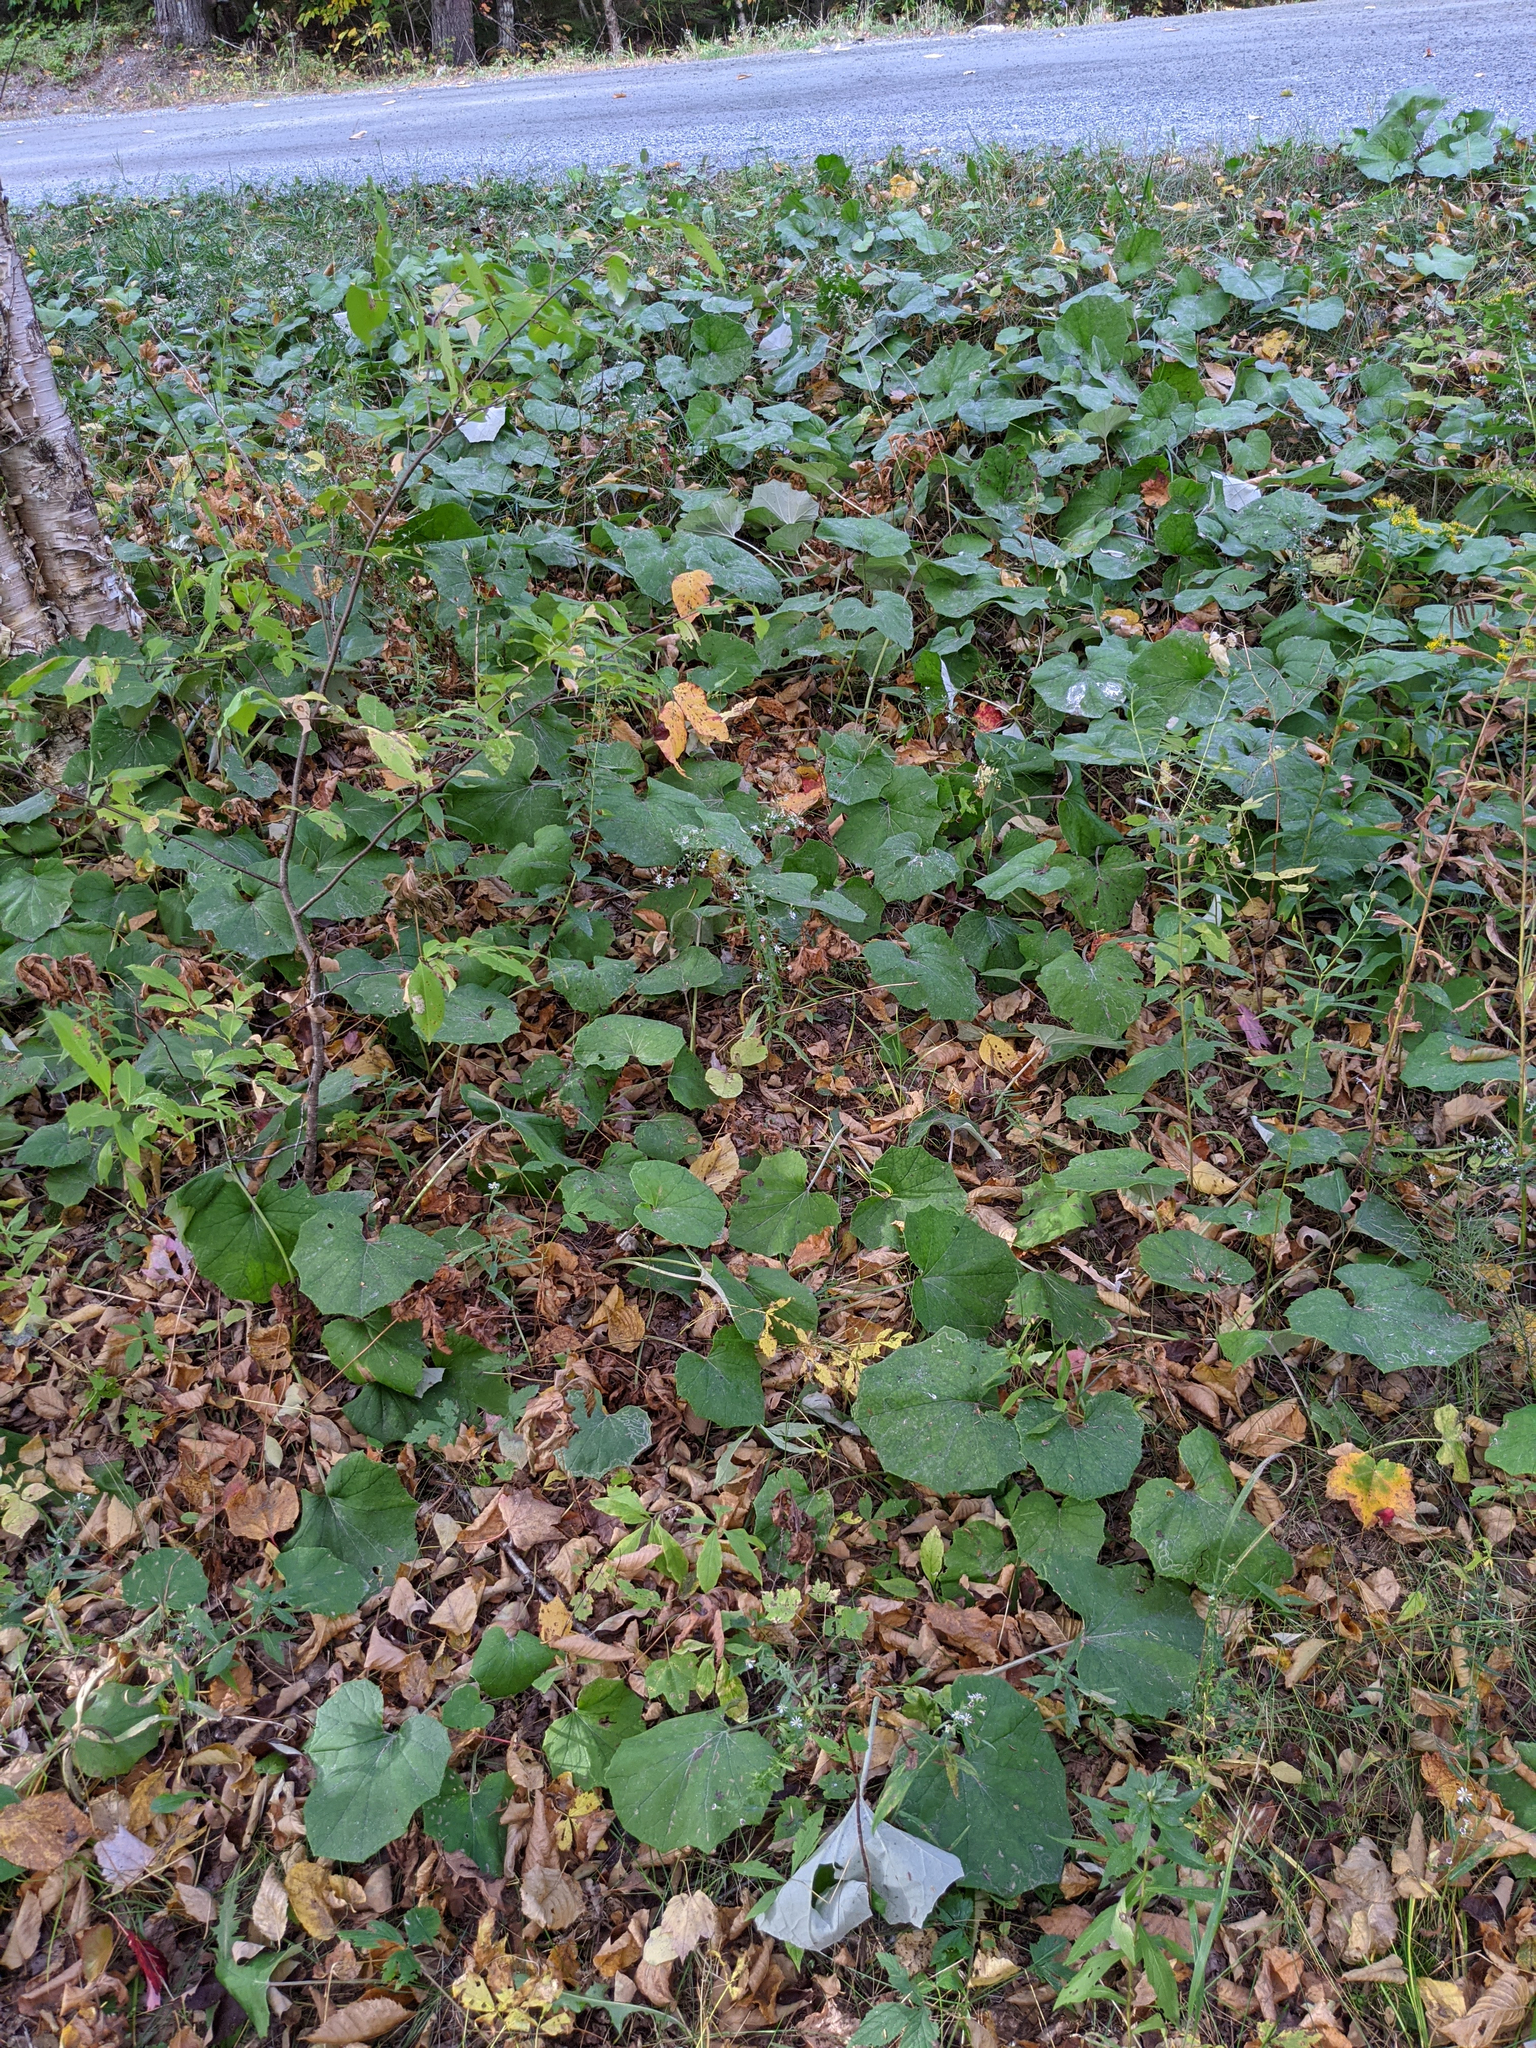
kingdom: Plantae
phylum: Tracheophyta
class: Magnoliopsida
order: Asterales
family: Asteraceae
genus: Tussilago
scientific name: Tussilago farfara
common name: Coltsfoot
